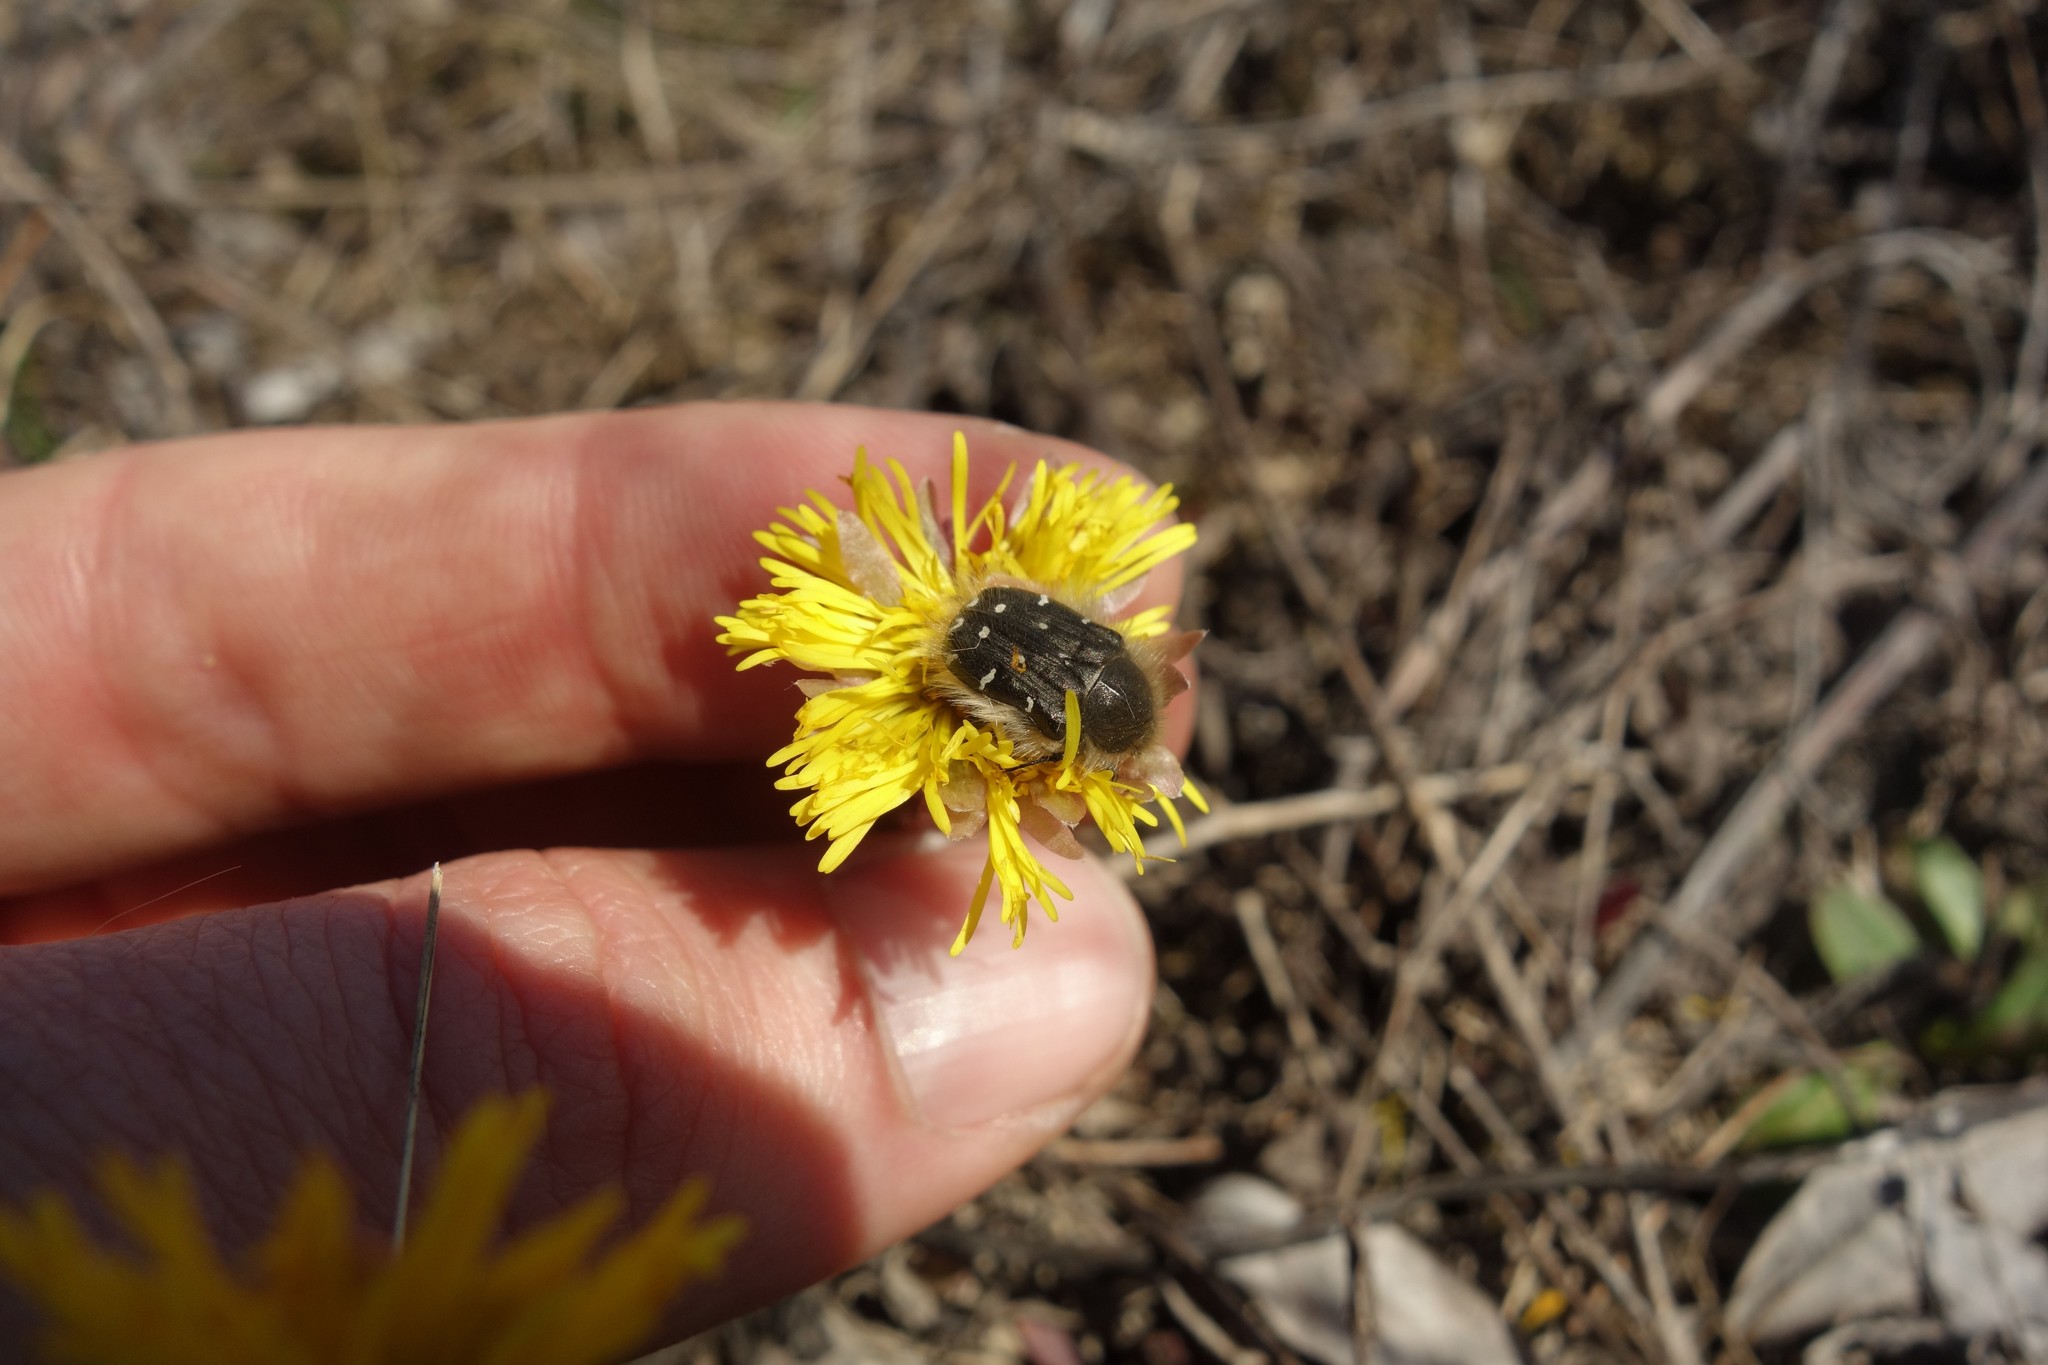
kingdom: Plantae
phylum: Tracheophyta
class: Magnoliopsida
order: Asterales
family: Asteraceae
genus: Tussilago
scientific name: Tussilago farfara
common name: Coltsfoot
